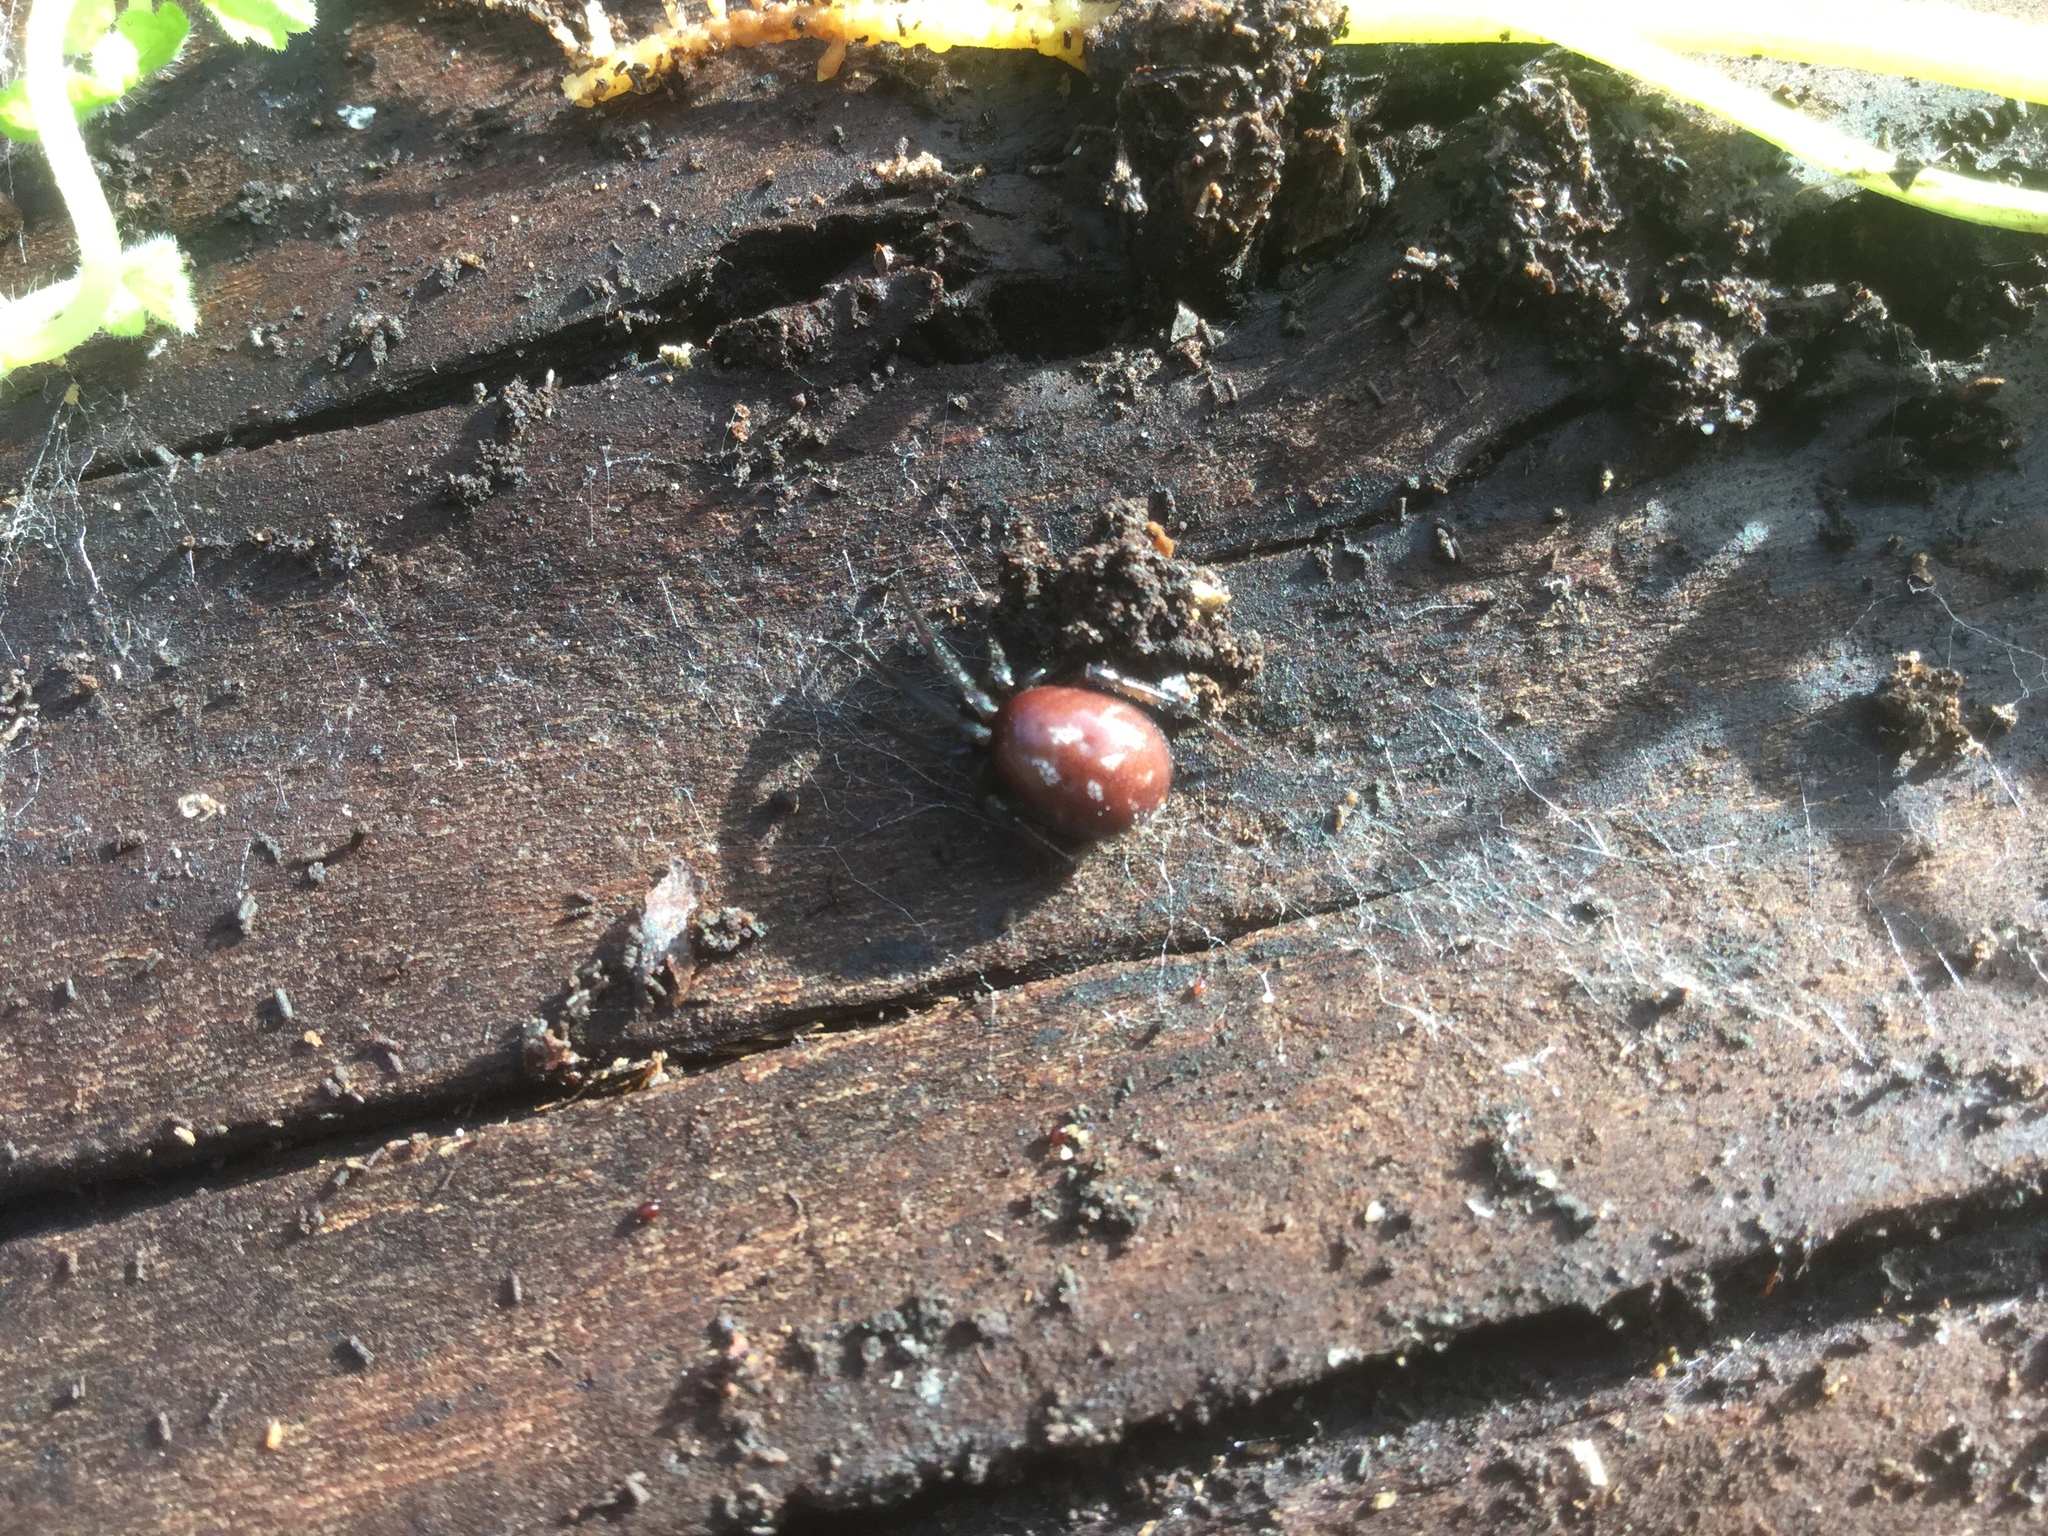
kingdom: Animalia
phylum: Arthropoda
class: Arachnida
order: Araneae
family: Theridiidae
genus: Steatoda
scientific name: Steatoda capensis
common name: Cobweb weaver
